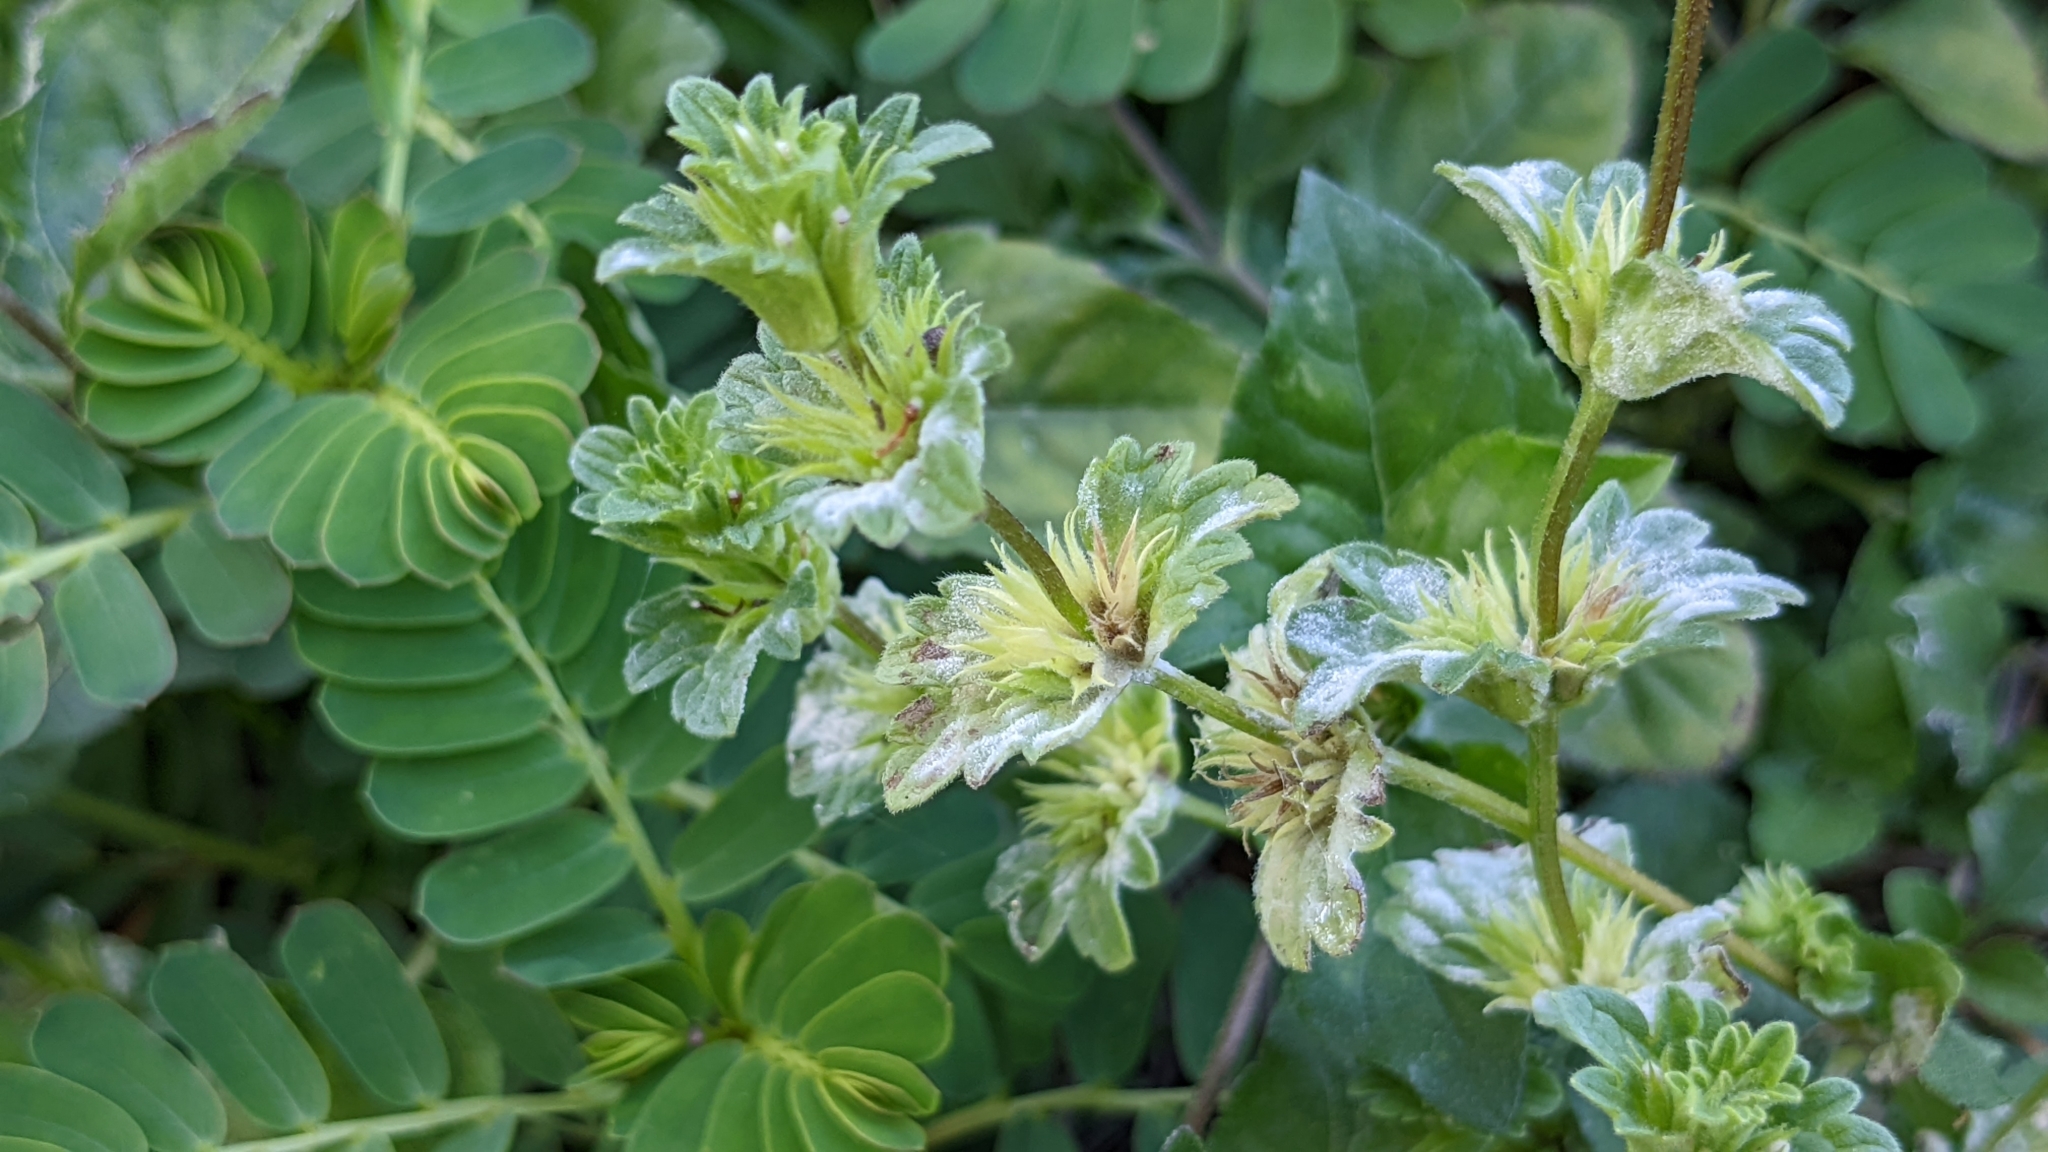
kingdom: Plantae
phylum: Tracheophyta
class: Magnoliopsida
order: Lamiales
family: Lamiaceae
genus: Lamium
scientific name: Lamium amplexicaule
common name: Henbit dead-nettle
